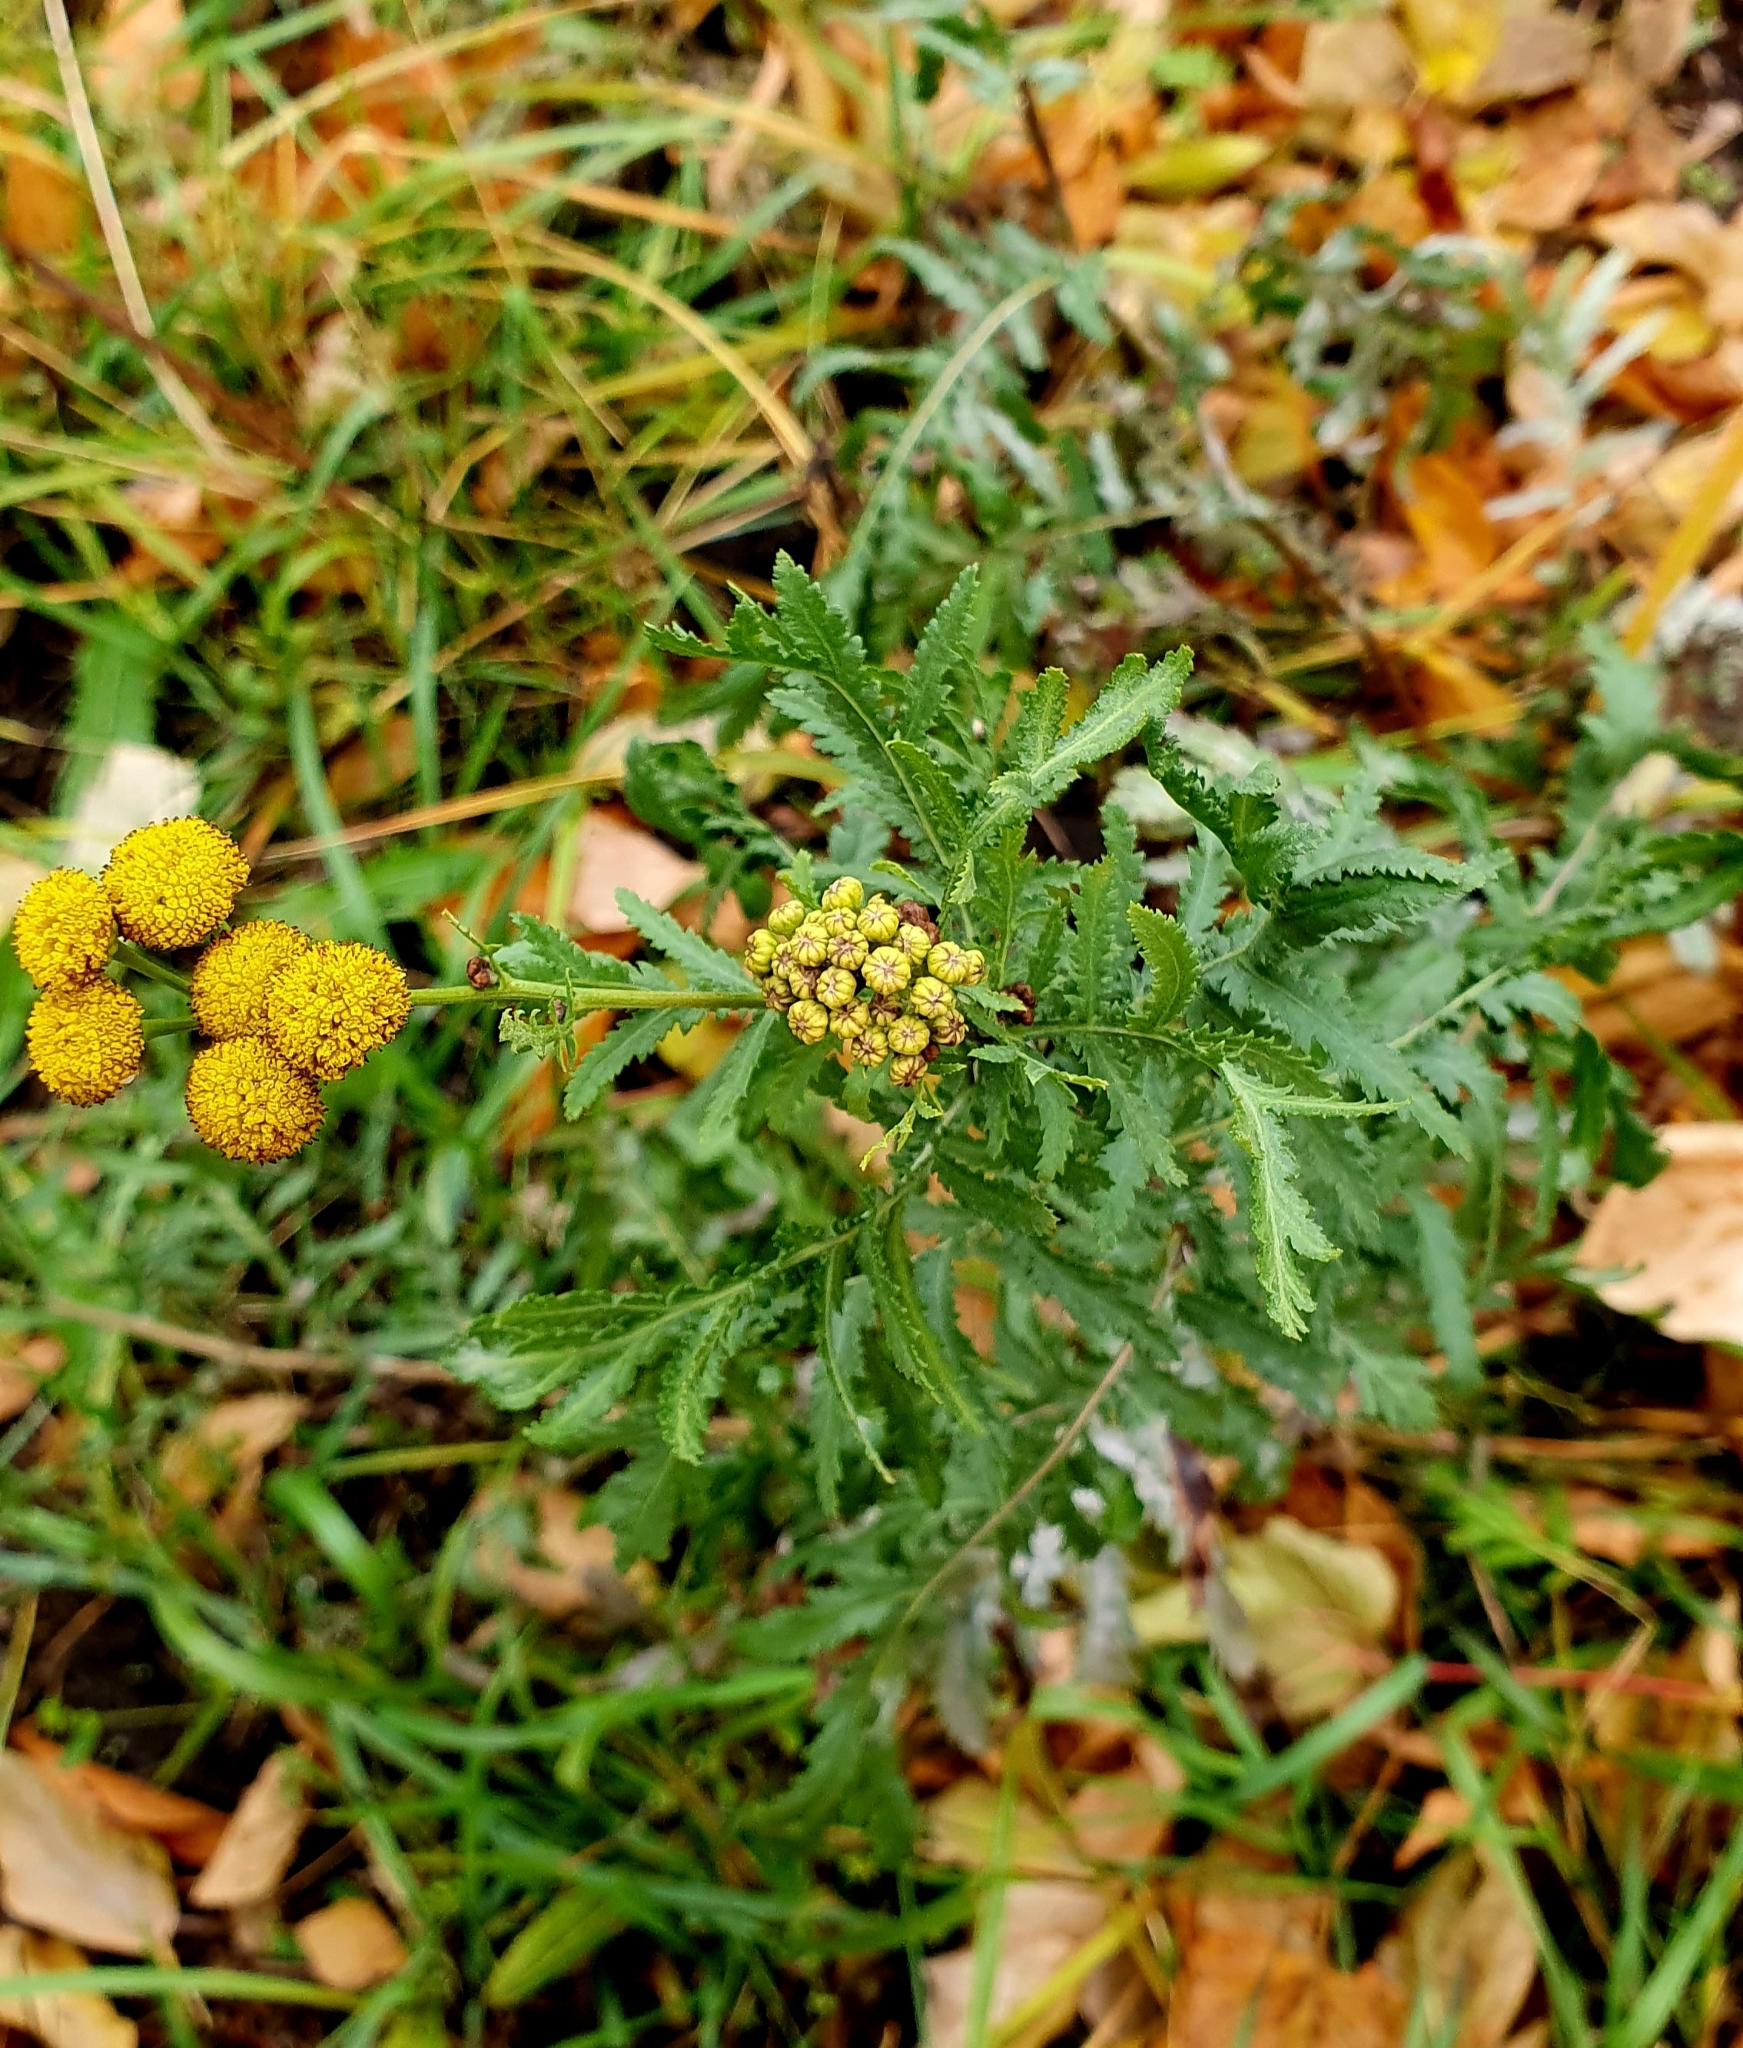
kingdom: Plantae
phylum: Tracheophyta
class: Magnoliopsida
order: Asterales
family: Asteraceae
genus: Tanacetum
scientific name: Tanacetum vulgare
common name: Common tansy
